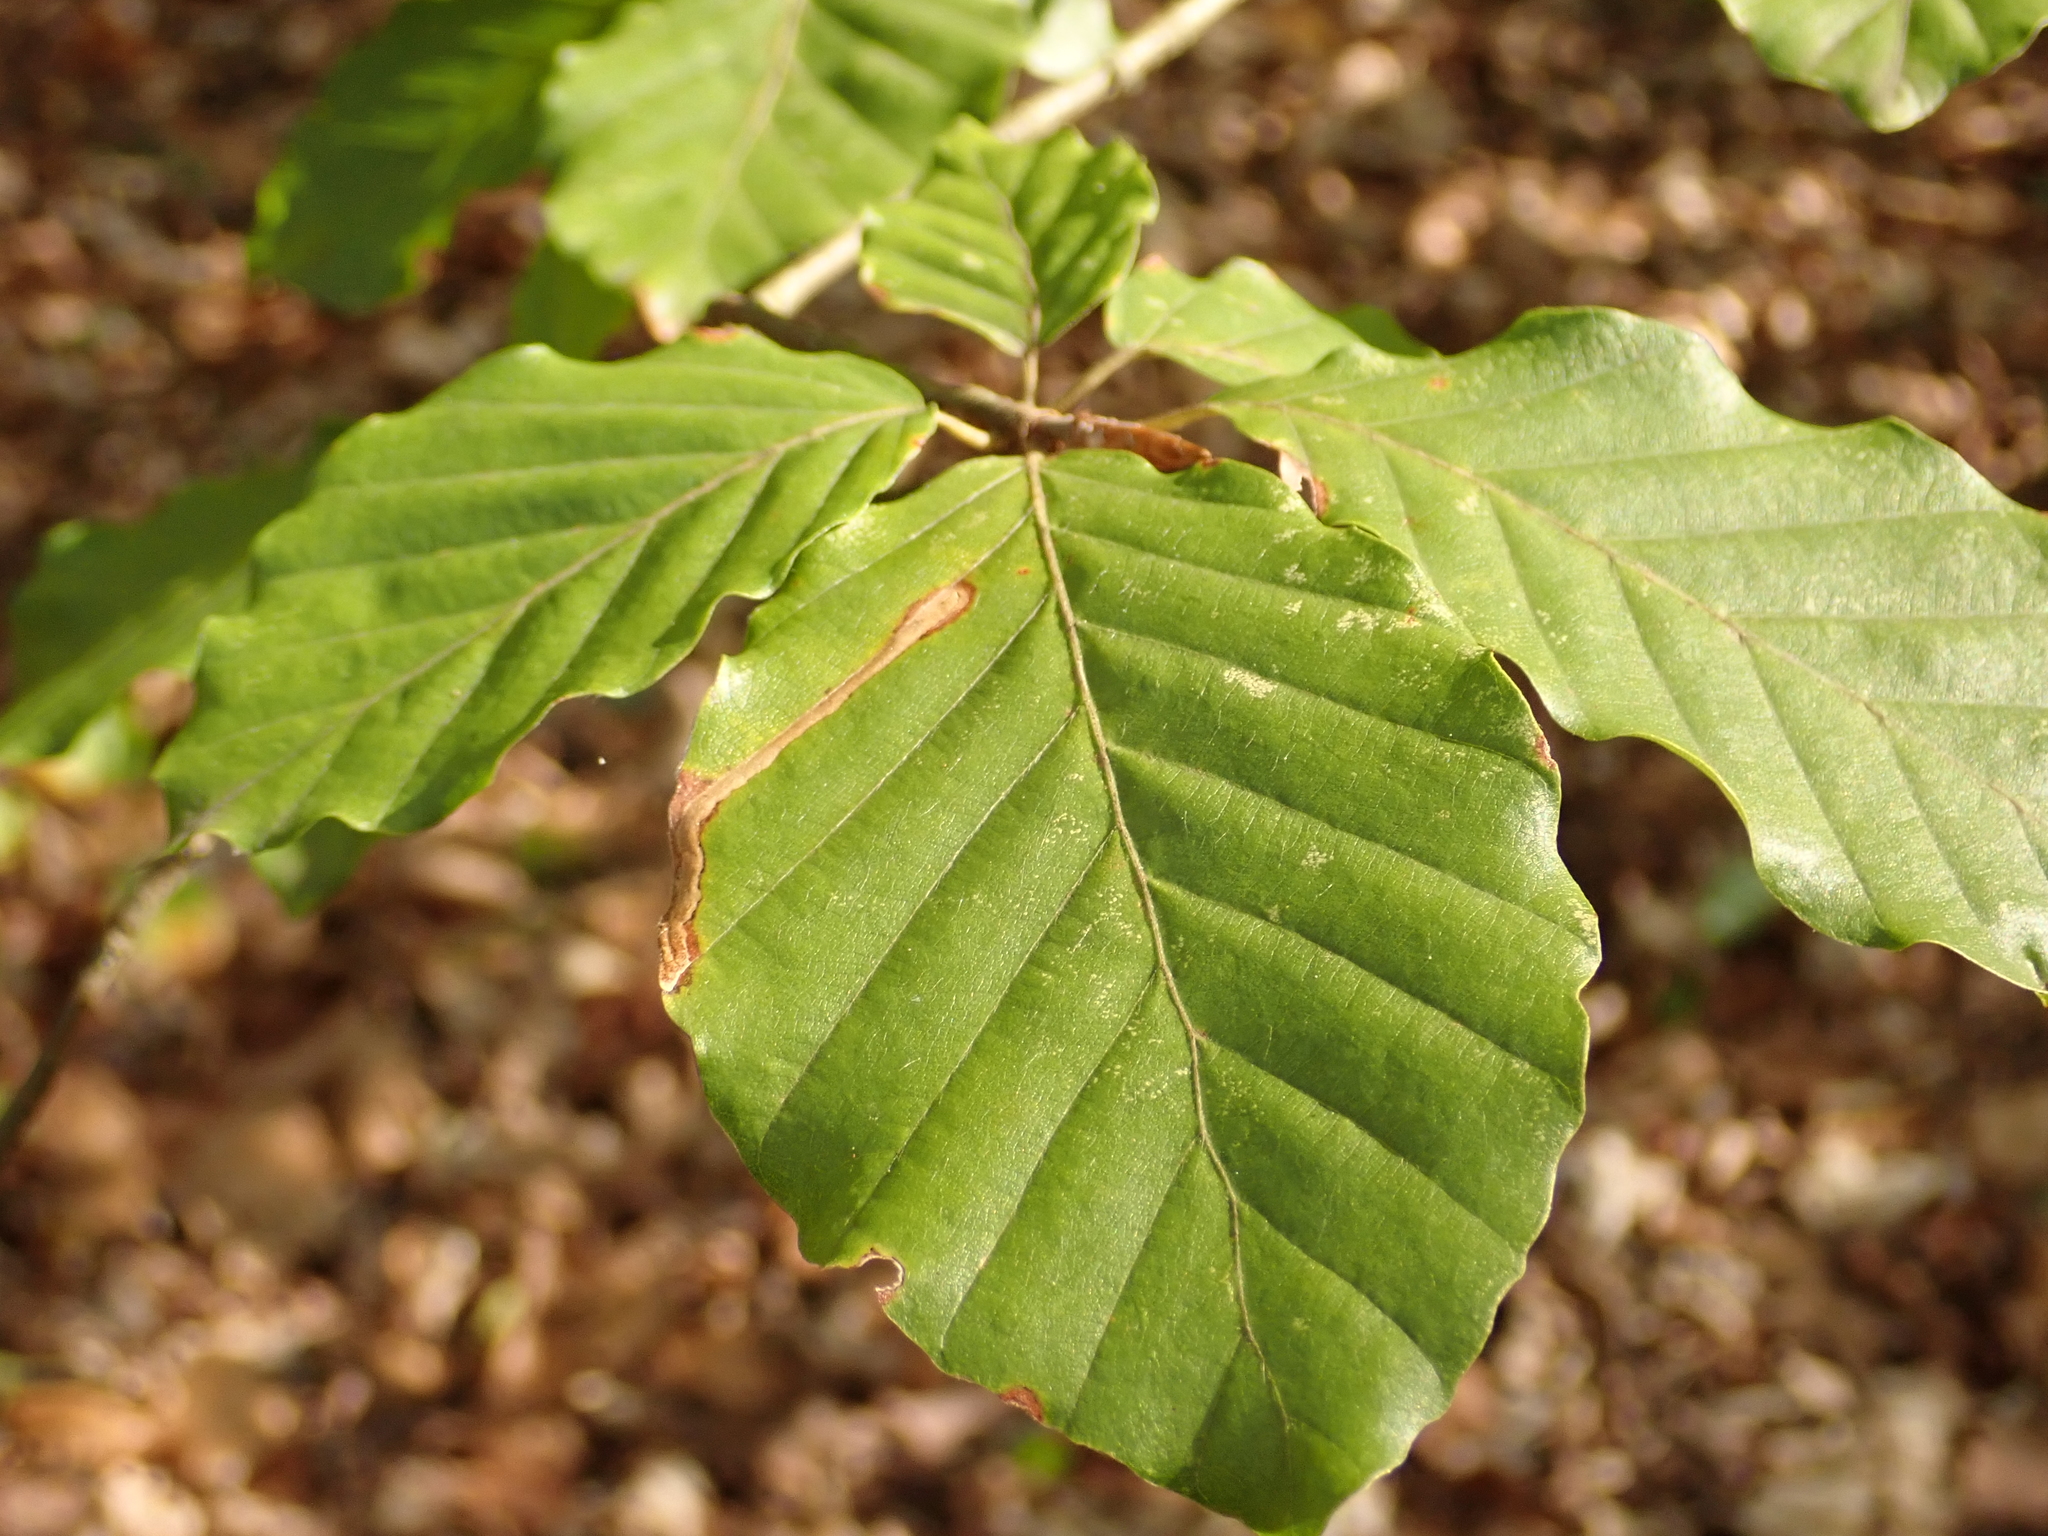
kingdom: Plantae
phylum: Tracheophyta
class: Magnoliopsida
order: Fagales
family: Fagaceae
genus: Fagus
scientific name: Fagus sylvatica
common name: Beech
